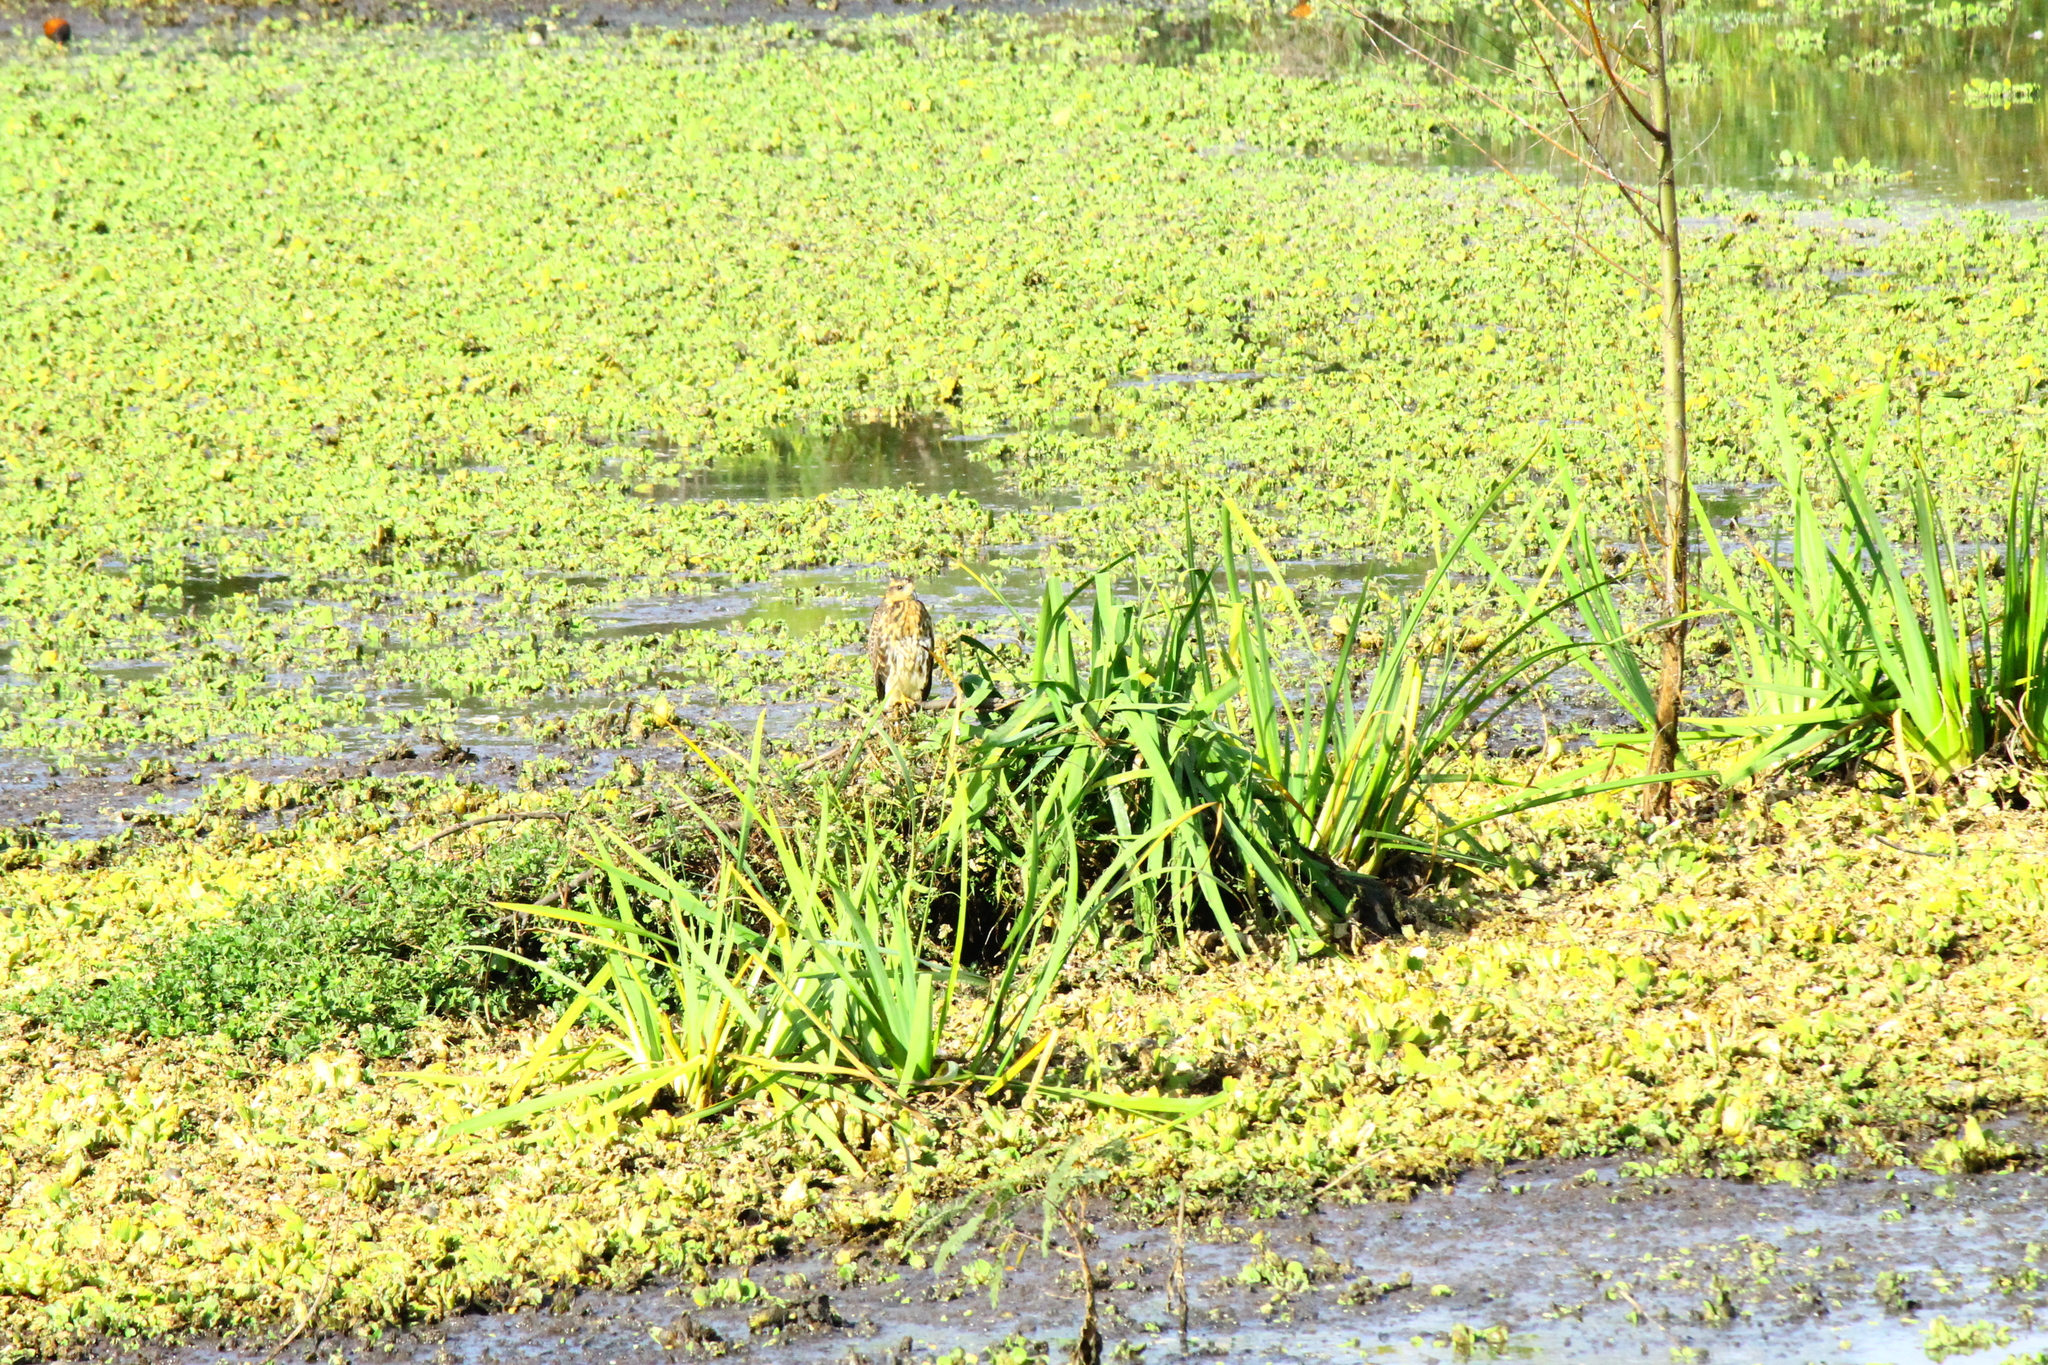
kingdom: Animalia
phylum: Chordata
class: Aves
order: Accipitriformes
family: Accipitridae
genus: Rostrhamus
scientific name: Rostrhamus sociabilis
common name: Snail kite
